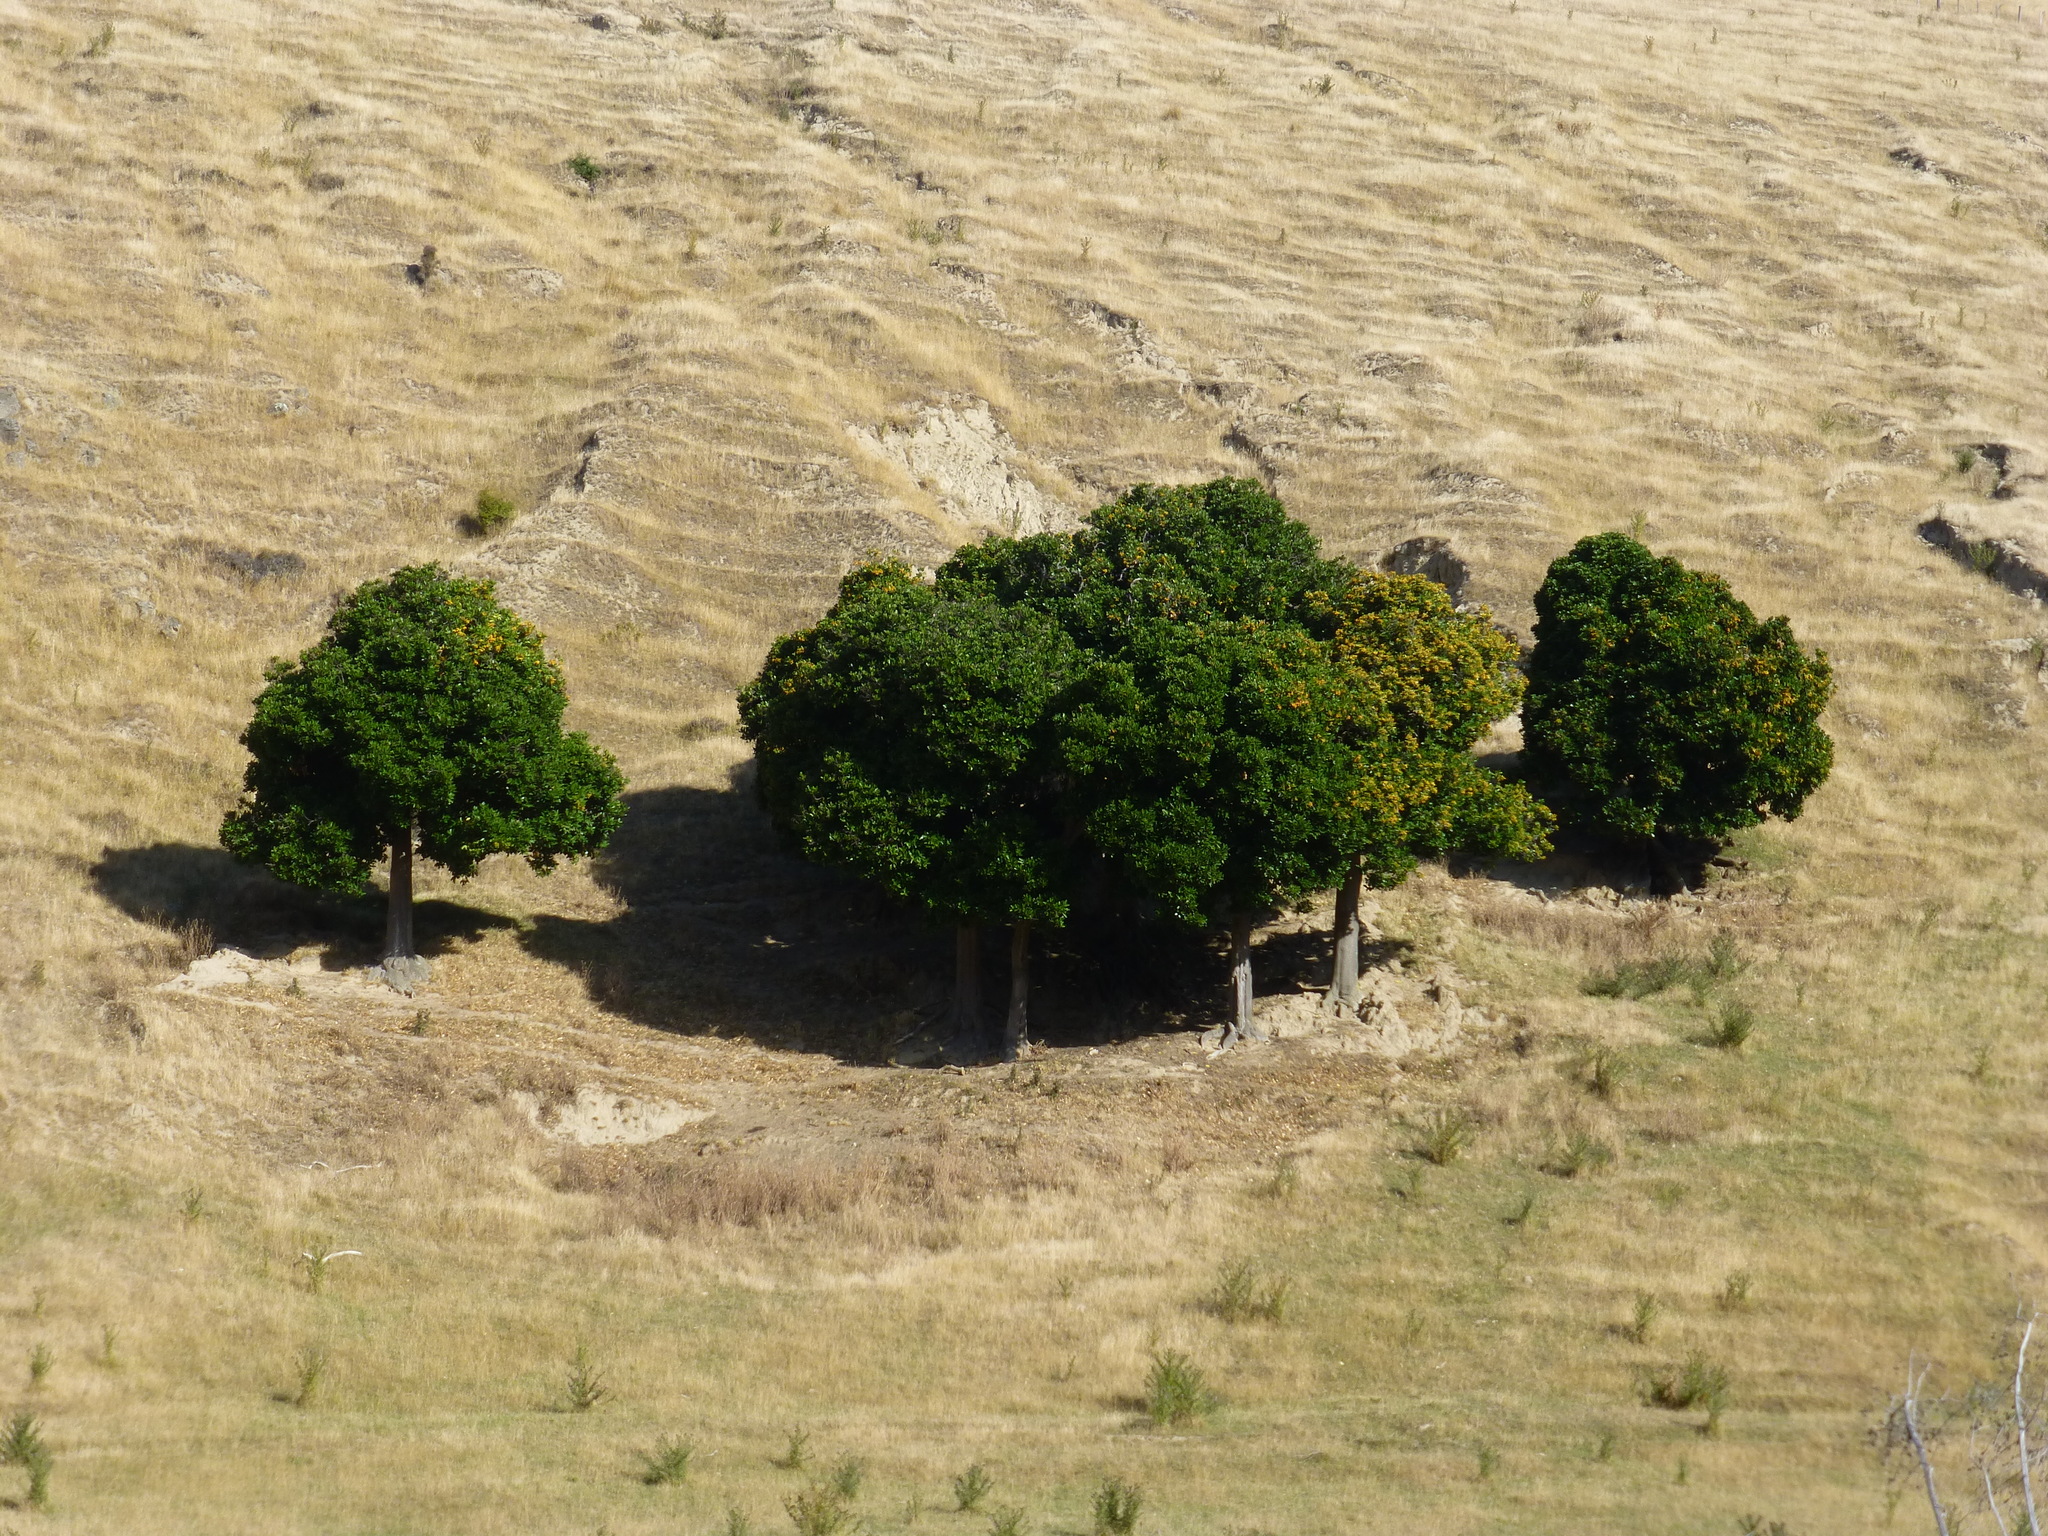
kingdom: Plantae
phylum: Tracheophyta
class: Magnoliopsida
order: Cucurbitales
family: Corynocarpaceae
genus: Corynocarpus
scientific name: Corynocarpus laevigatus
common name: New zealand laurel
